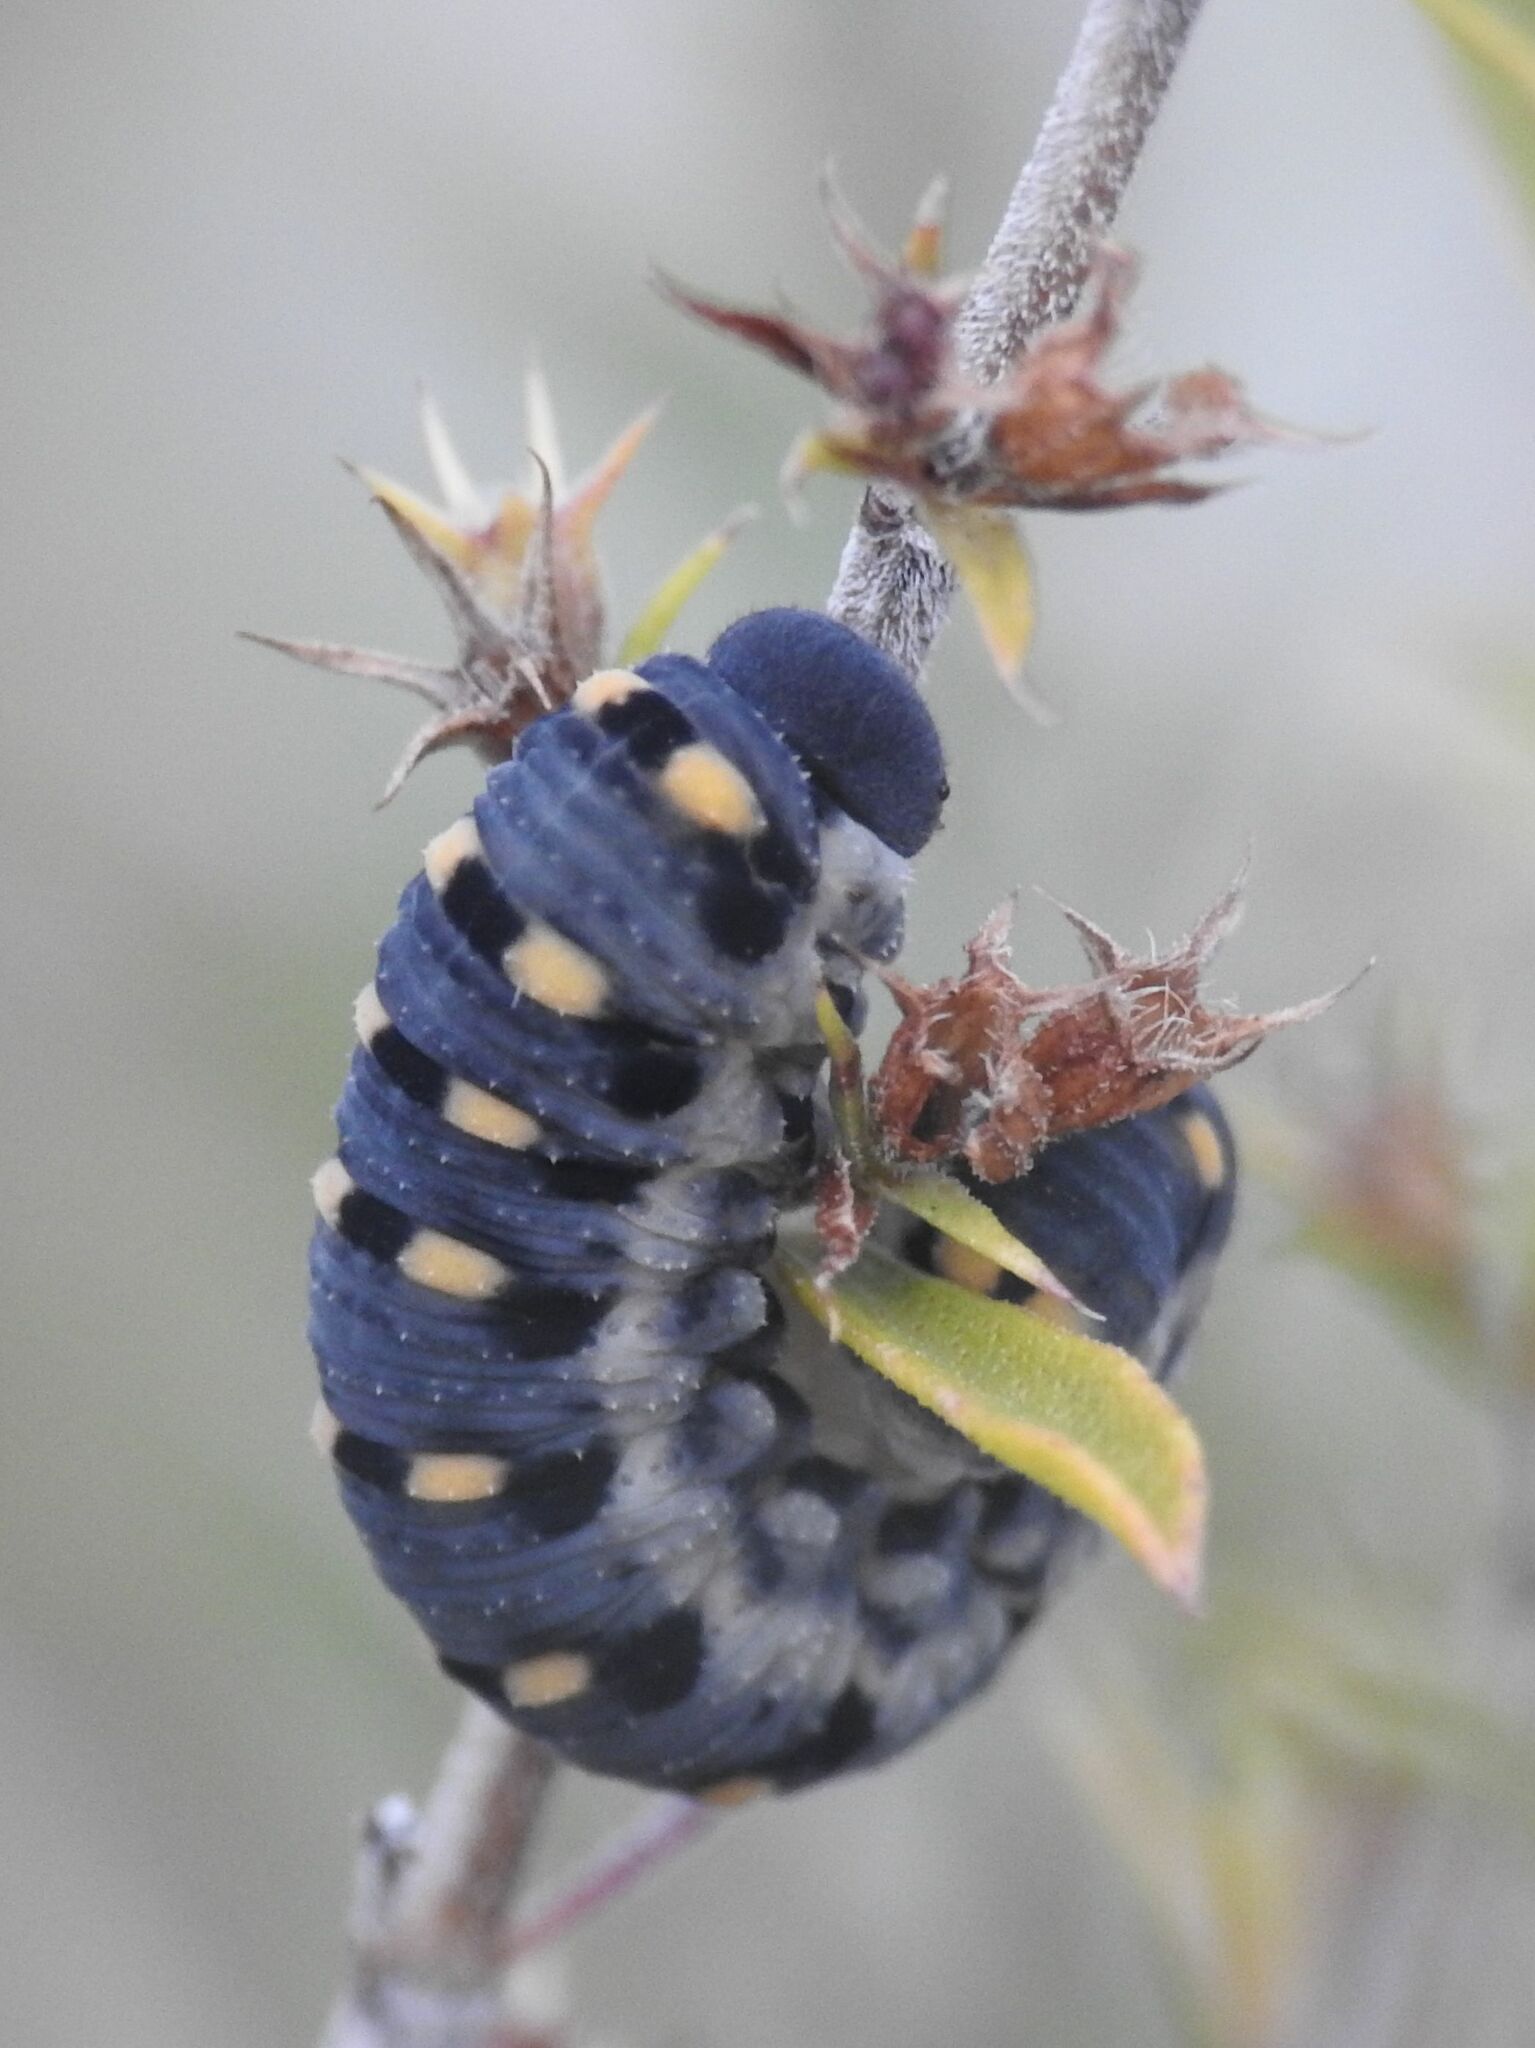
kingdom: Animalia
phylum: Arthropoda
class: Insecta
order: Hymenoptera
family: Cimbicidae
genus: Abia
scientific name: Abia nitens
